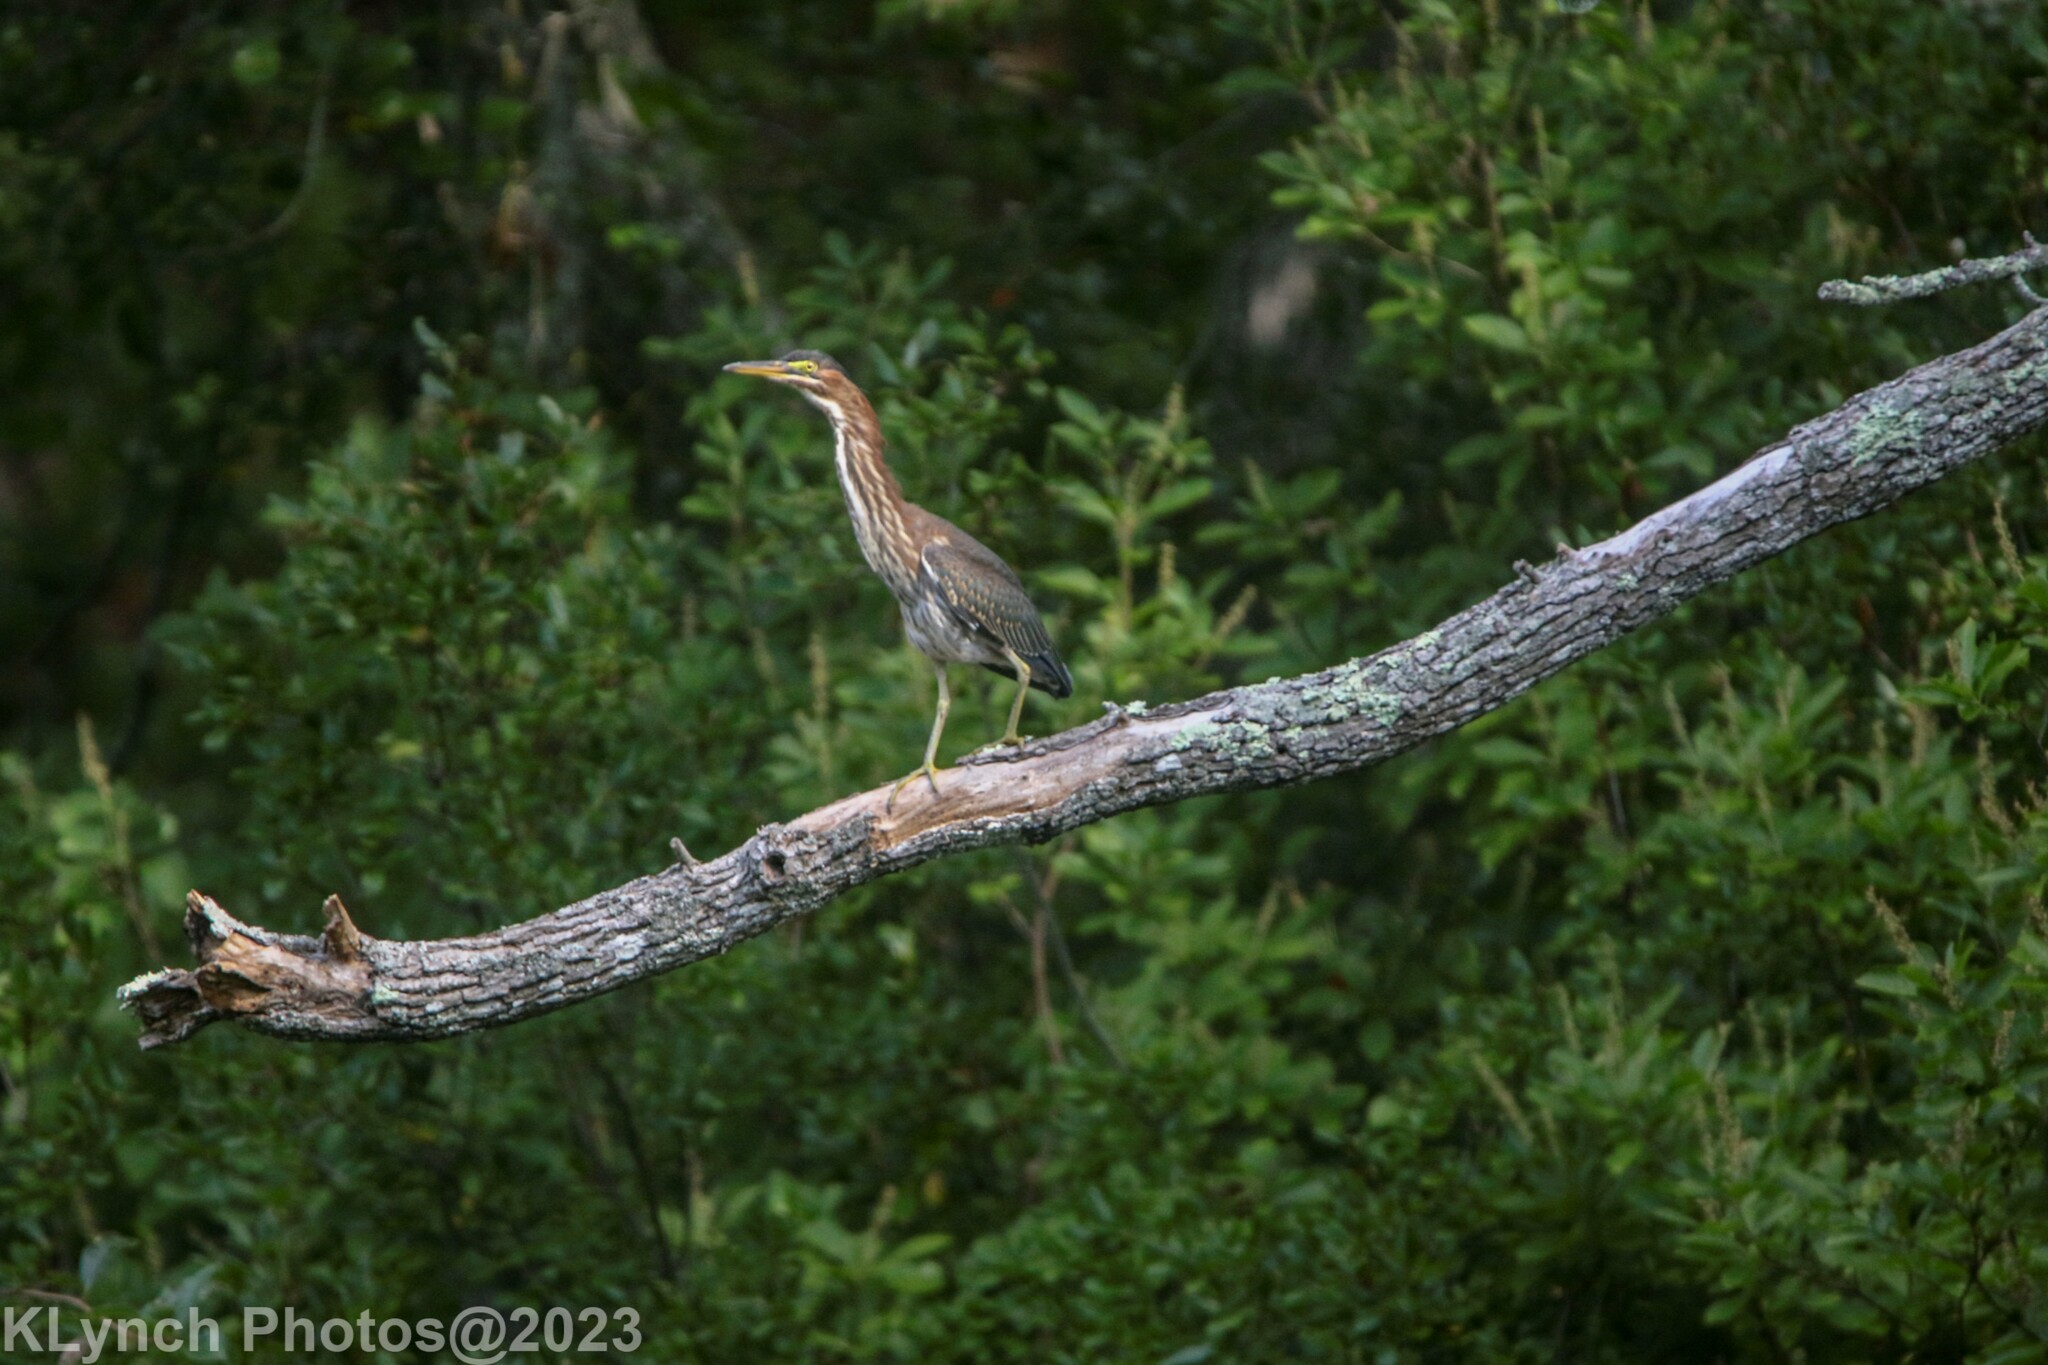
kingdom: Animalia
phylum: Chordata
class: Aves
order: Pelecaniformes
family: Ardeidae
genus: Butorides
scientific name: Butorides virescens
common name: Green heron
